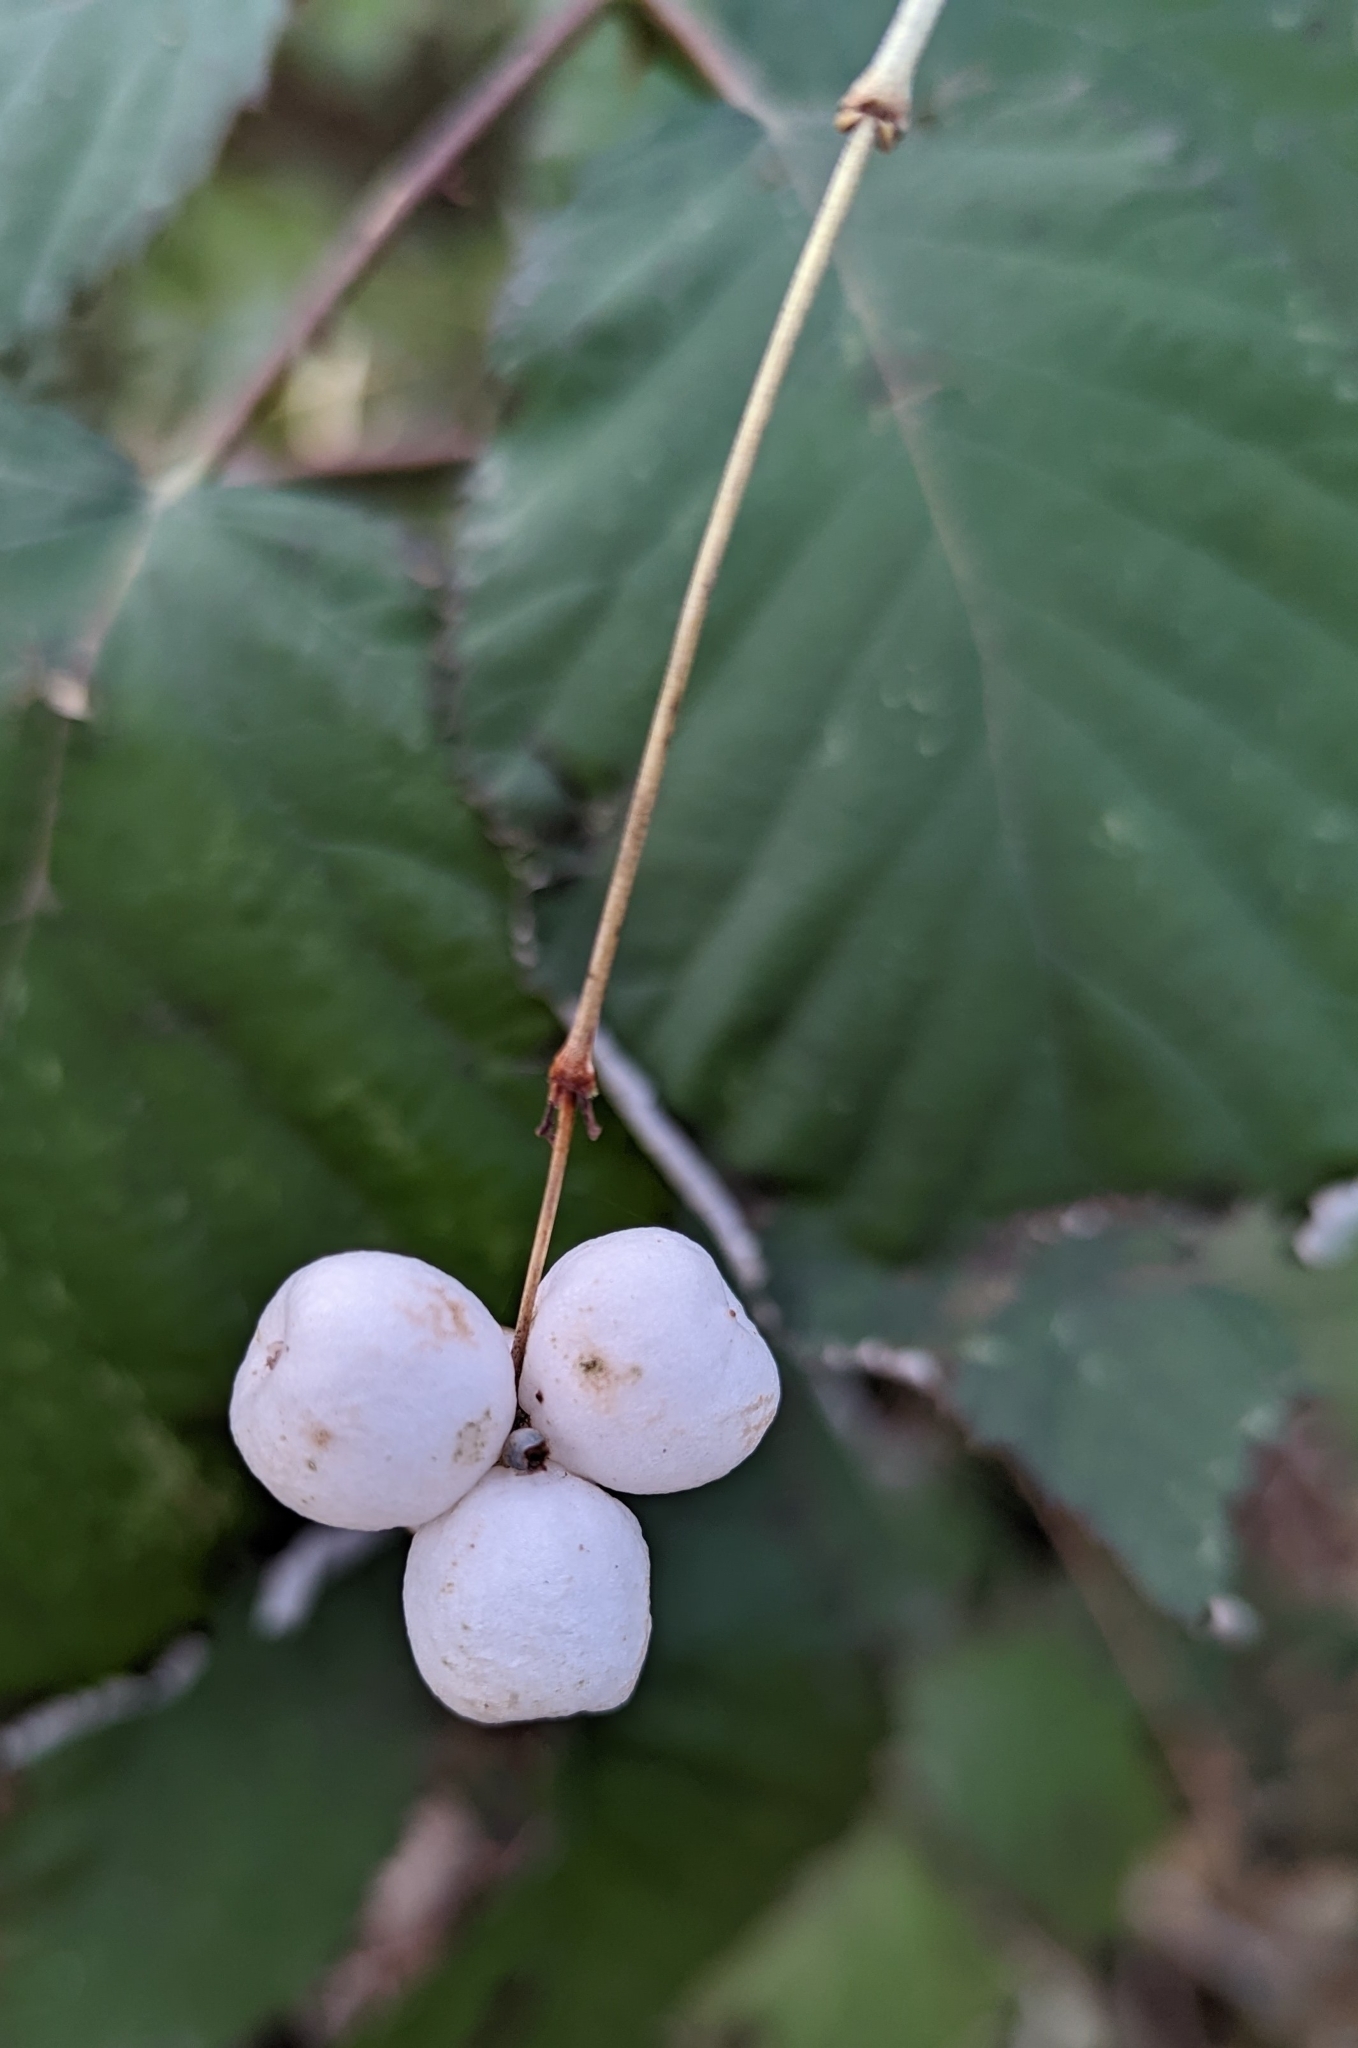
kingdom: Plantae
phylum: Tracheophyta
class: Magnoliopsida
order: Dipsacales
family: Caprifoliaceae
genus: Symphoricarpos
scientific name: Symphoricarpos albus
